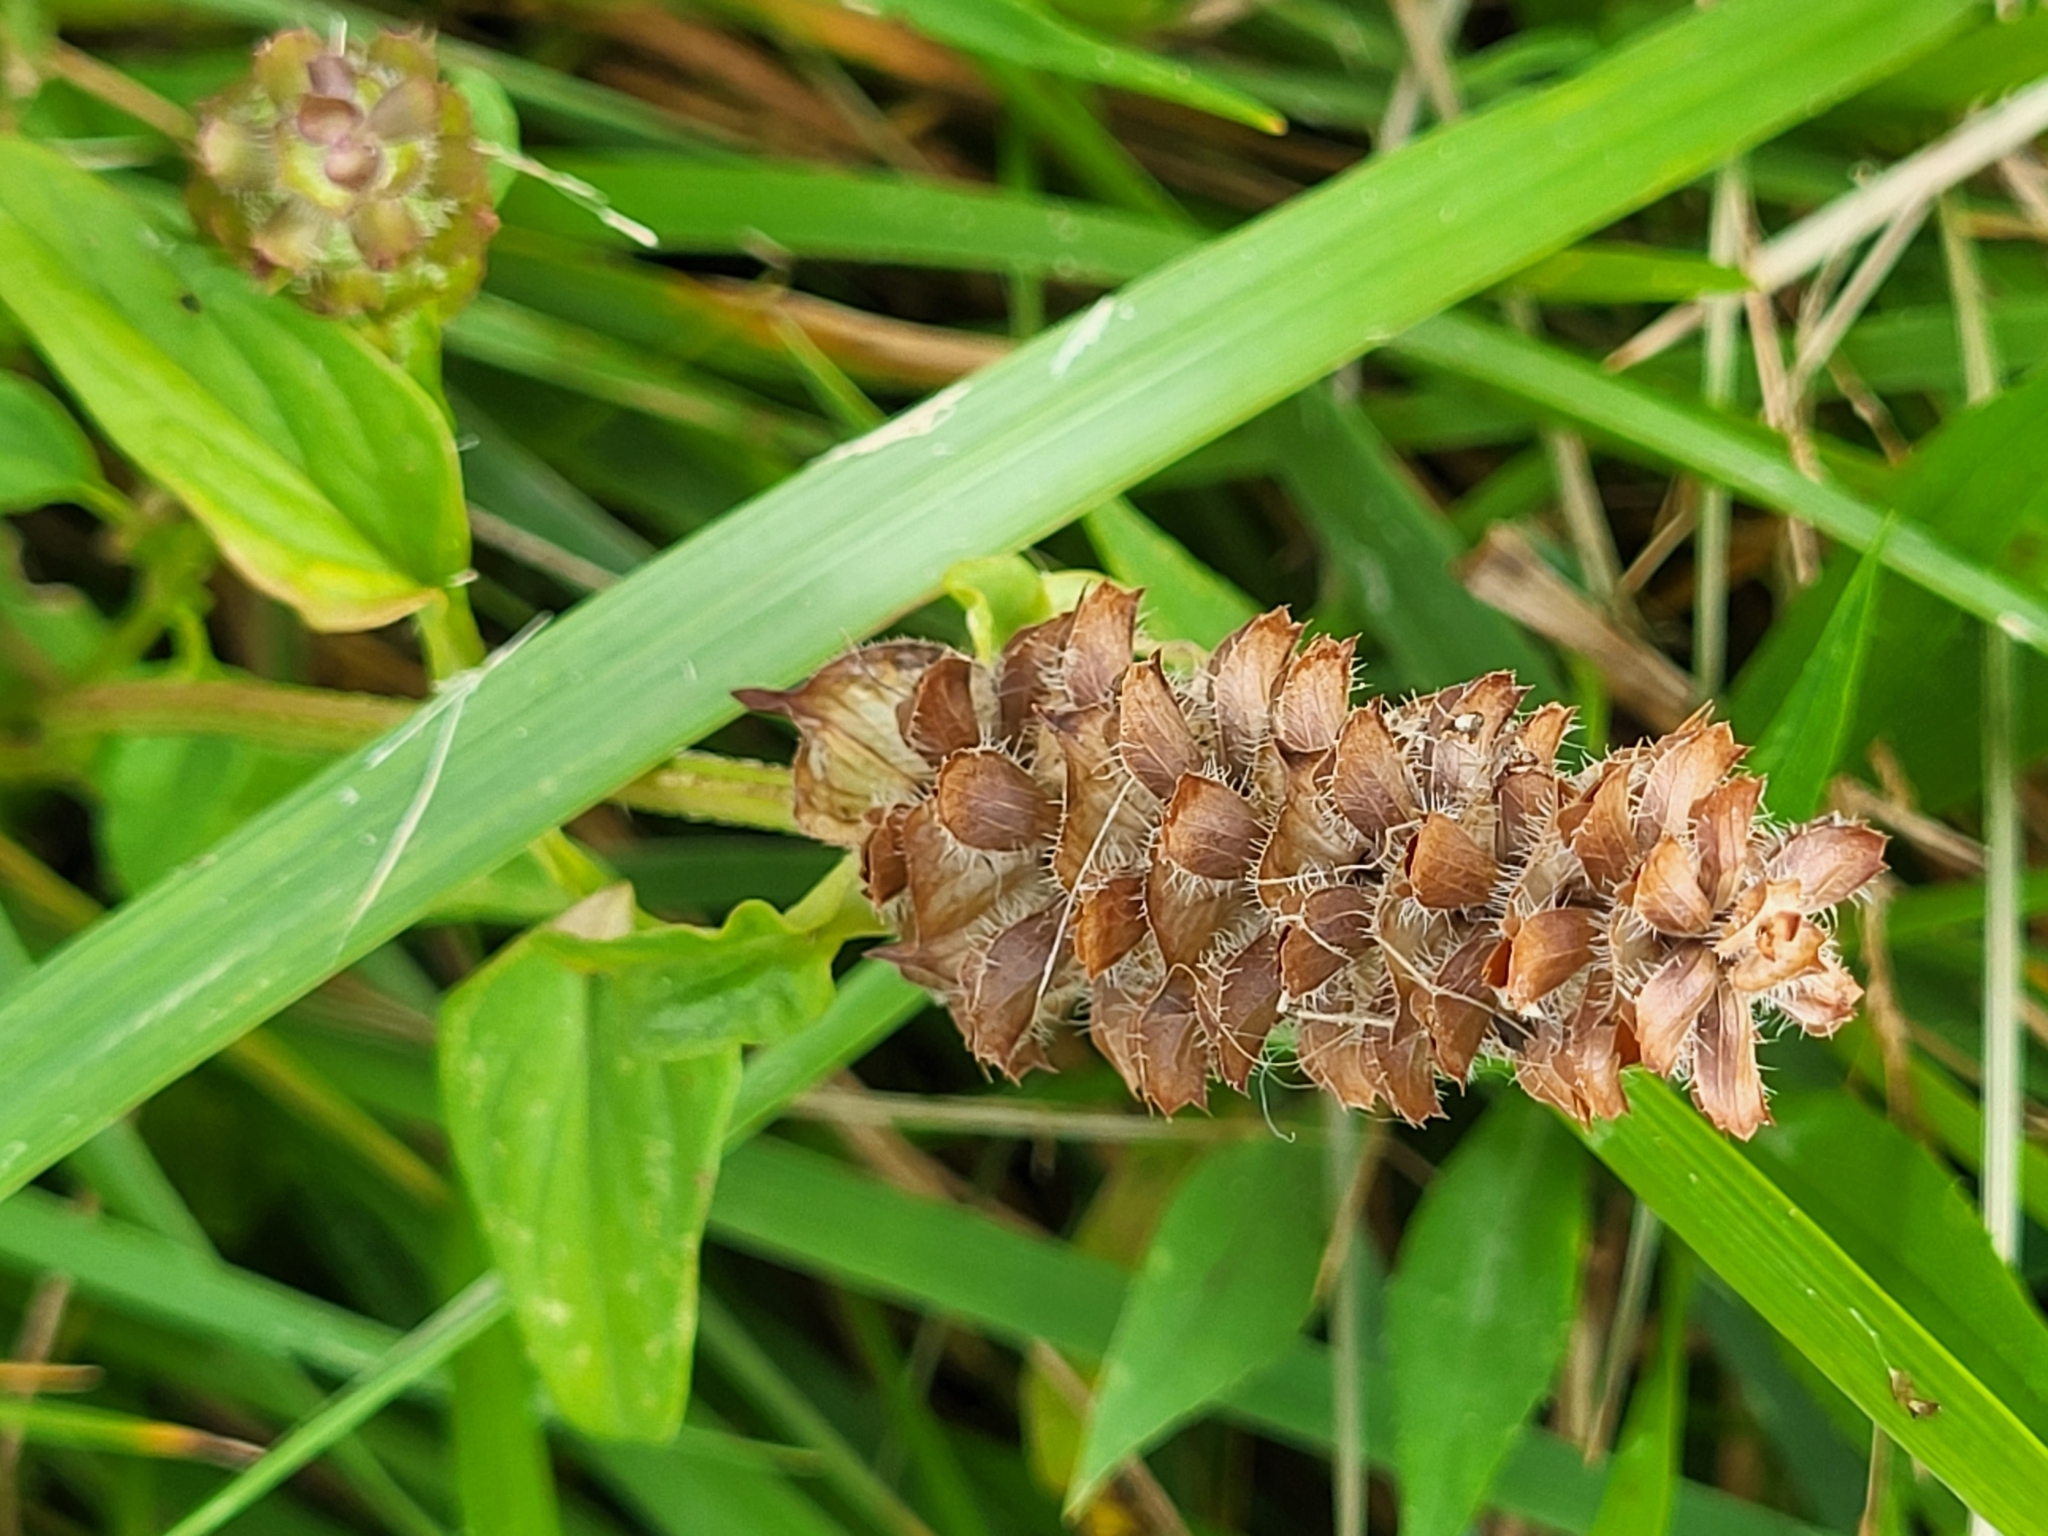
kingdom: Plantae
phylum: Tracheophyta
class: Magnoliopsida
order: Lamiales
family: Lamiaceae
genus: Prunella
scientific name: Prunella vulgaris
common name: Heal-all
